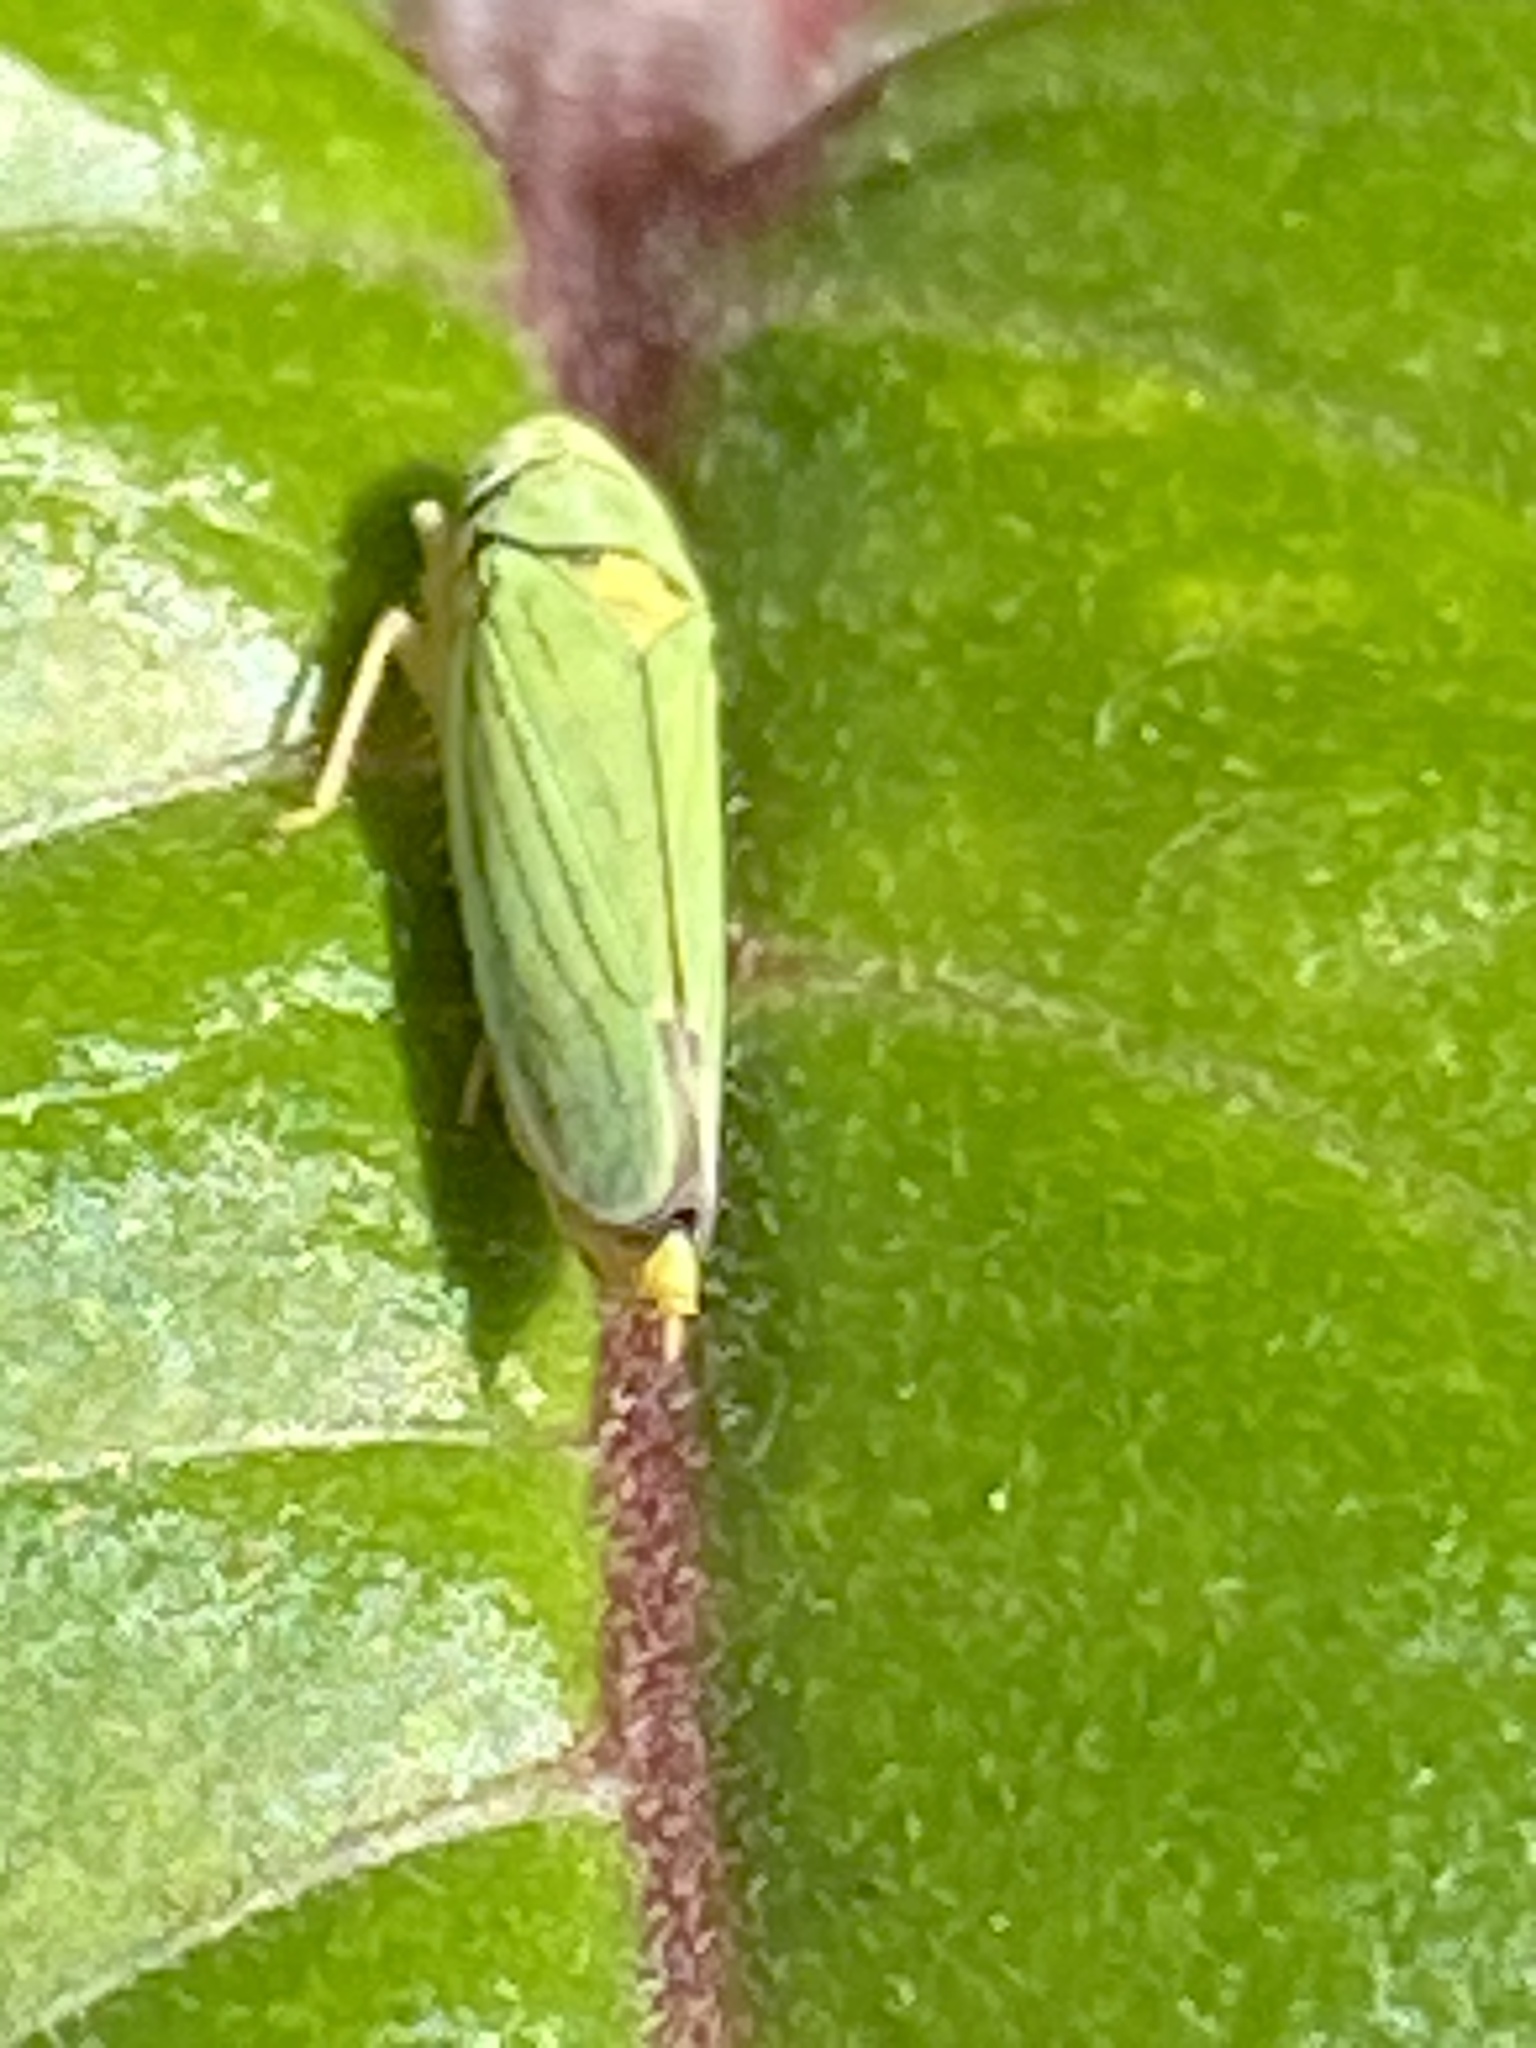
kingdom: Animalia
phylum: Arthropoda
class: Insecta
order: Hemiptera
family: Cicadellidae
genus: Graphocephala
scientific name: Graphocephala atropunctata
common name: Blue-green sharpshooter
